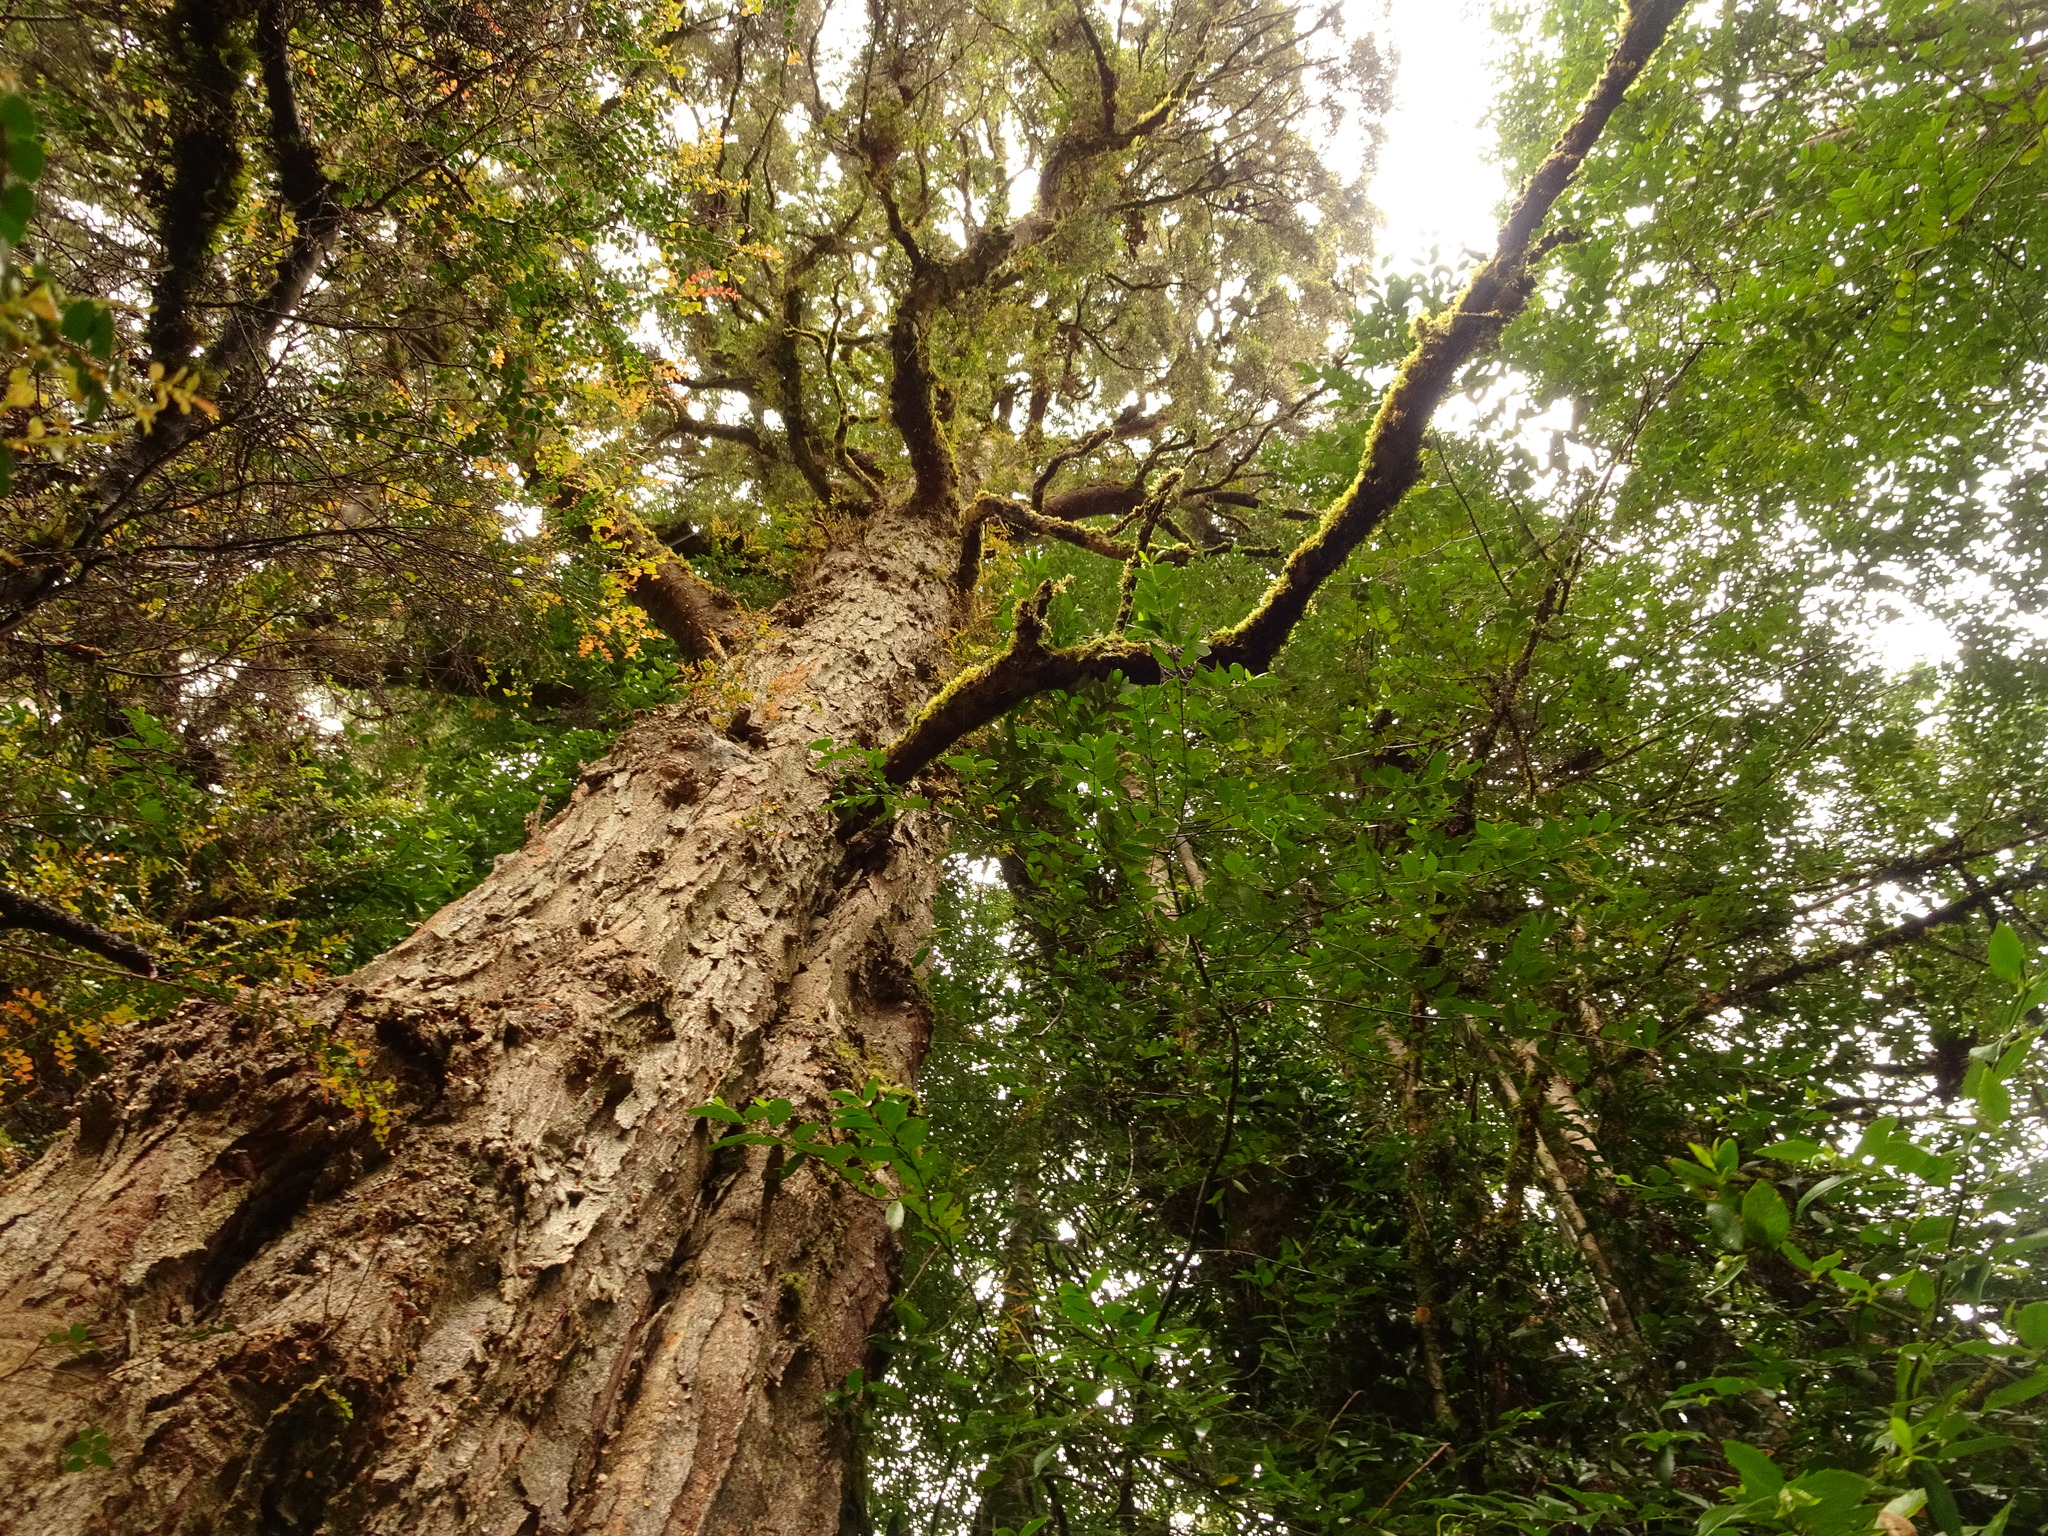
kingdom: Plantae
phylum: Tracheophyta
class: Magnoliopsida
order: Fagales
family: Nothofagaceae
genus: Nothofagus
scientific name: Nothofagus cunninghamii
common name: Myrtle beech
